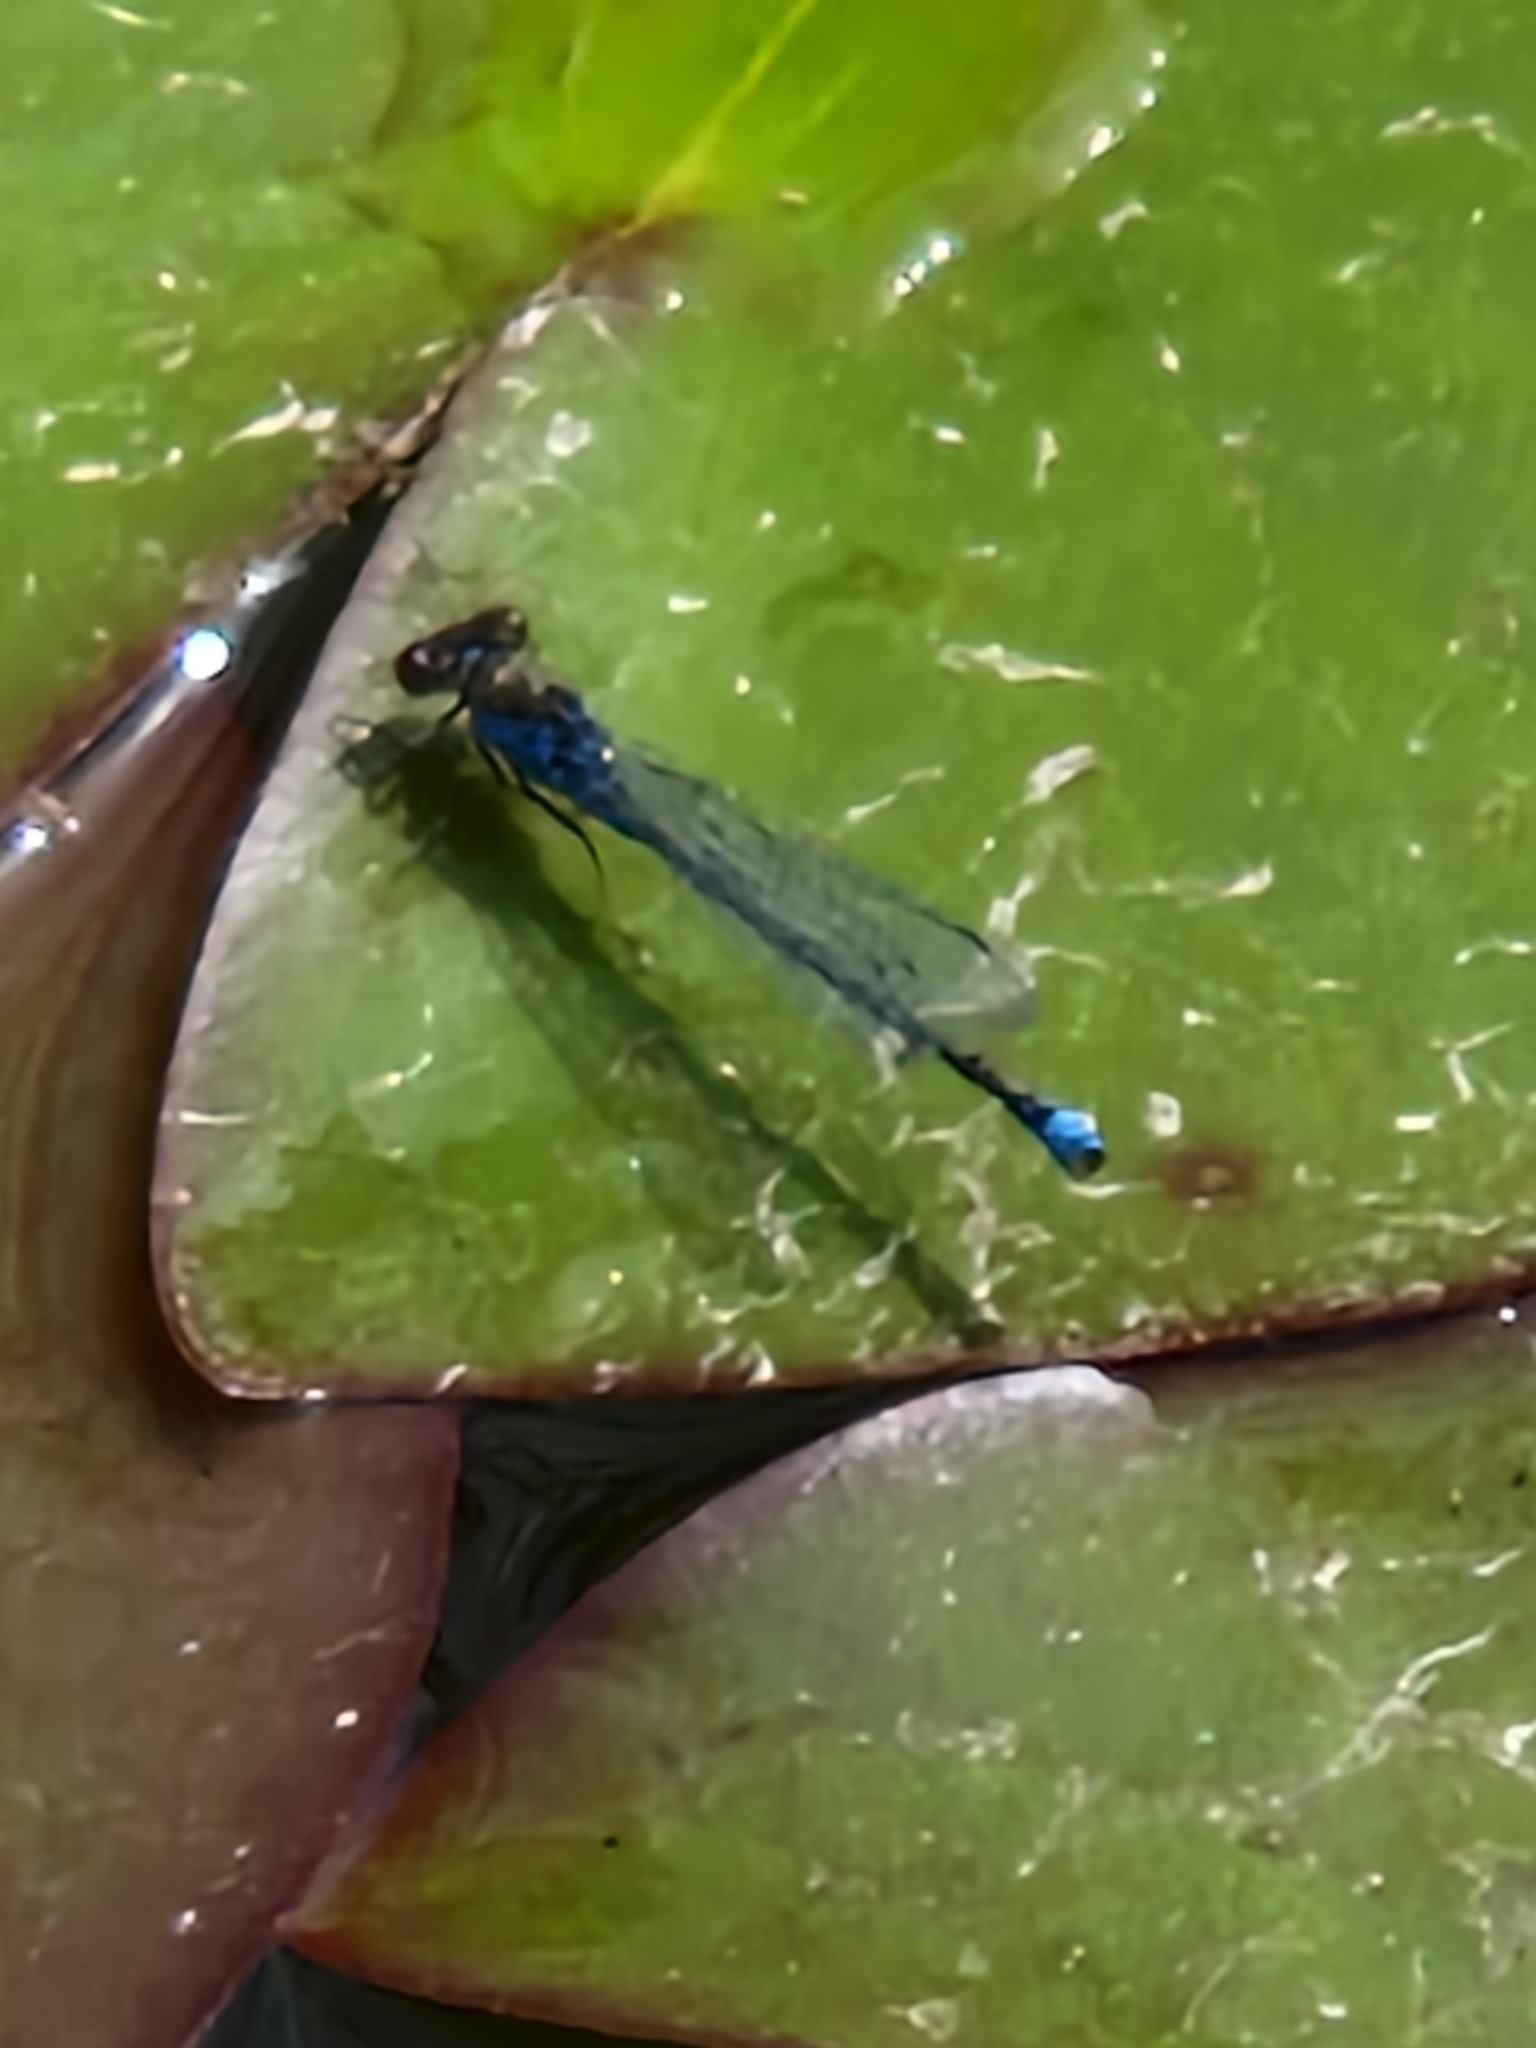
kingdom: Animalia
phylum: Arthropoda
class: Insecta
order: Odonata
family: Coenagrionidae
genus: Erythromma
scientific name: Erythromma najas
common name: Red-eyed damselfly
